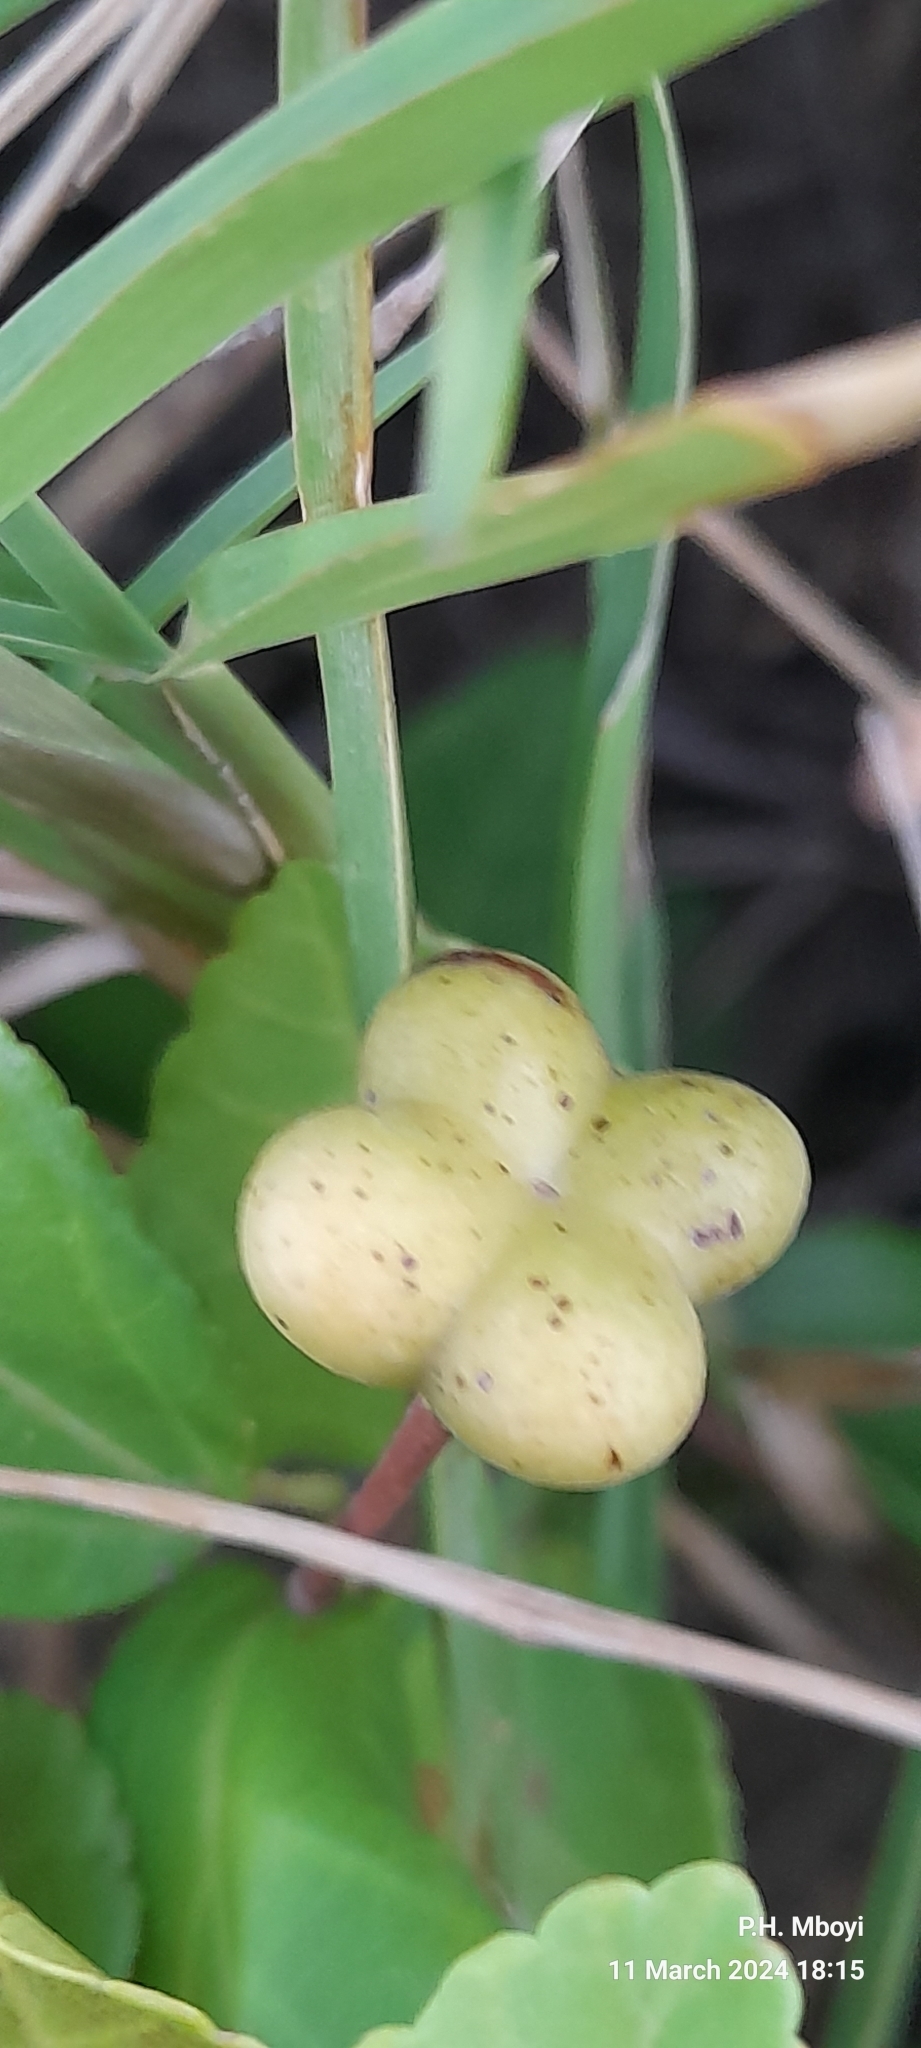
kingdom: Plantae
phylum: Tracheophyta
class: Magnoliopsida
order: Malvales
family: Malvaceae
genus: Grewia
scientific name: Grewia occidentalis
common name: Crossberry
